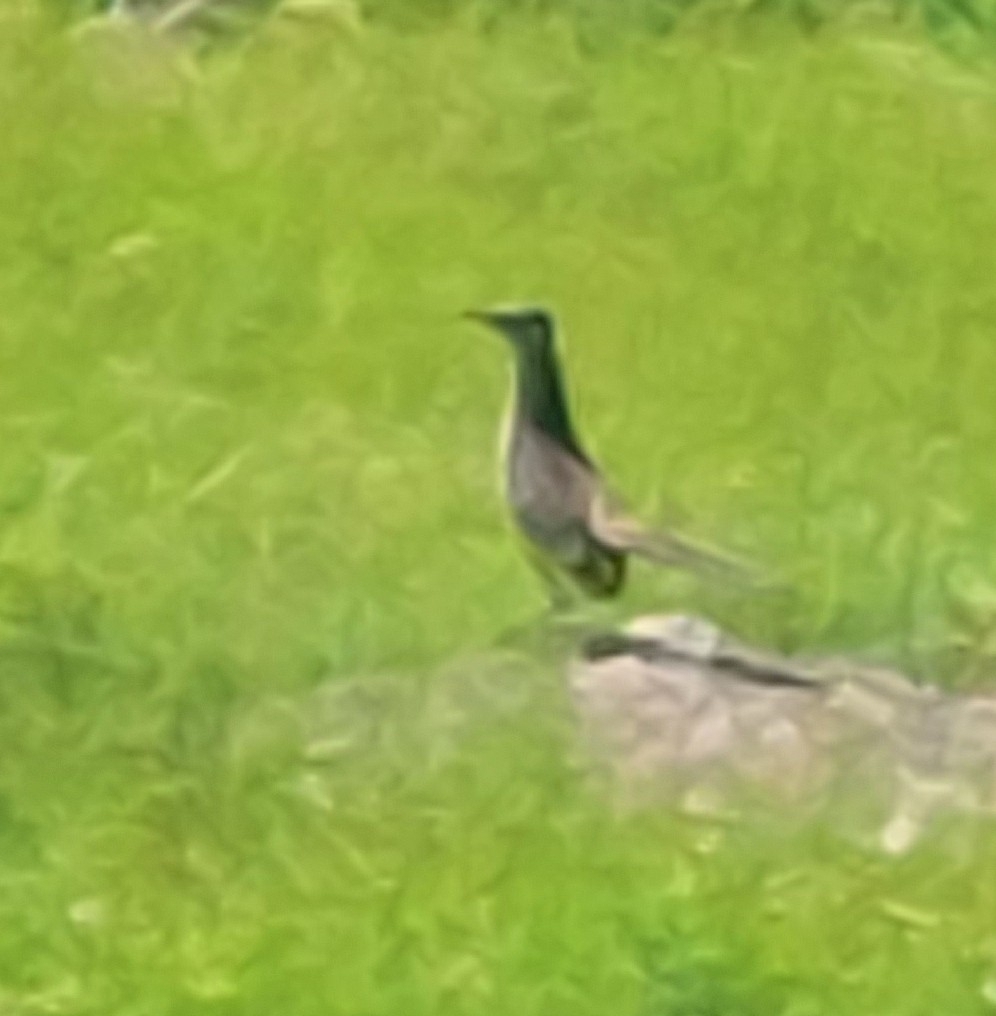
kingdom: Animalia
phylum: Chordata
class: Aves
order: Cuculiformes
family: Cuculidae
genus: Geococcyx
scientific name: Geococcyx velox
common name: Lesser roadrunner
